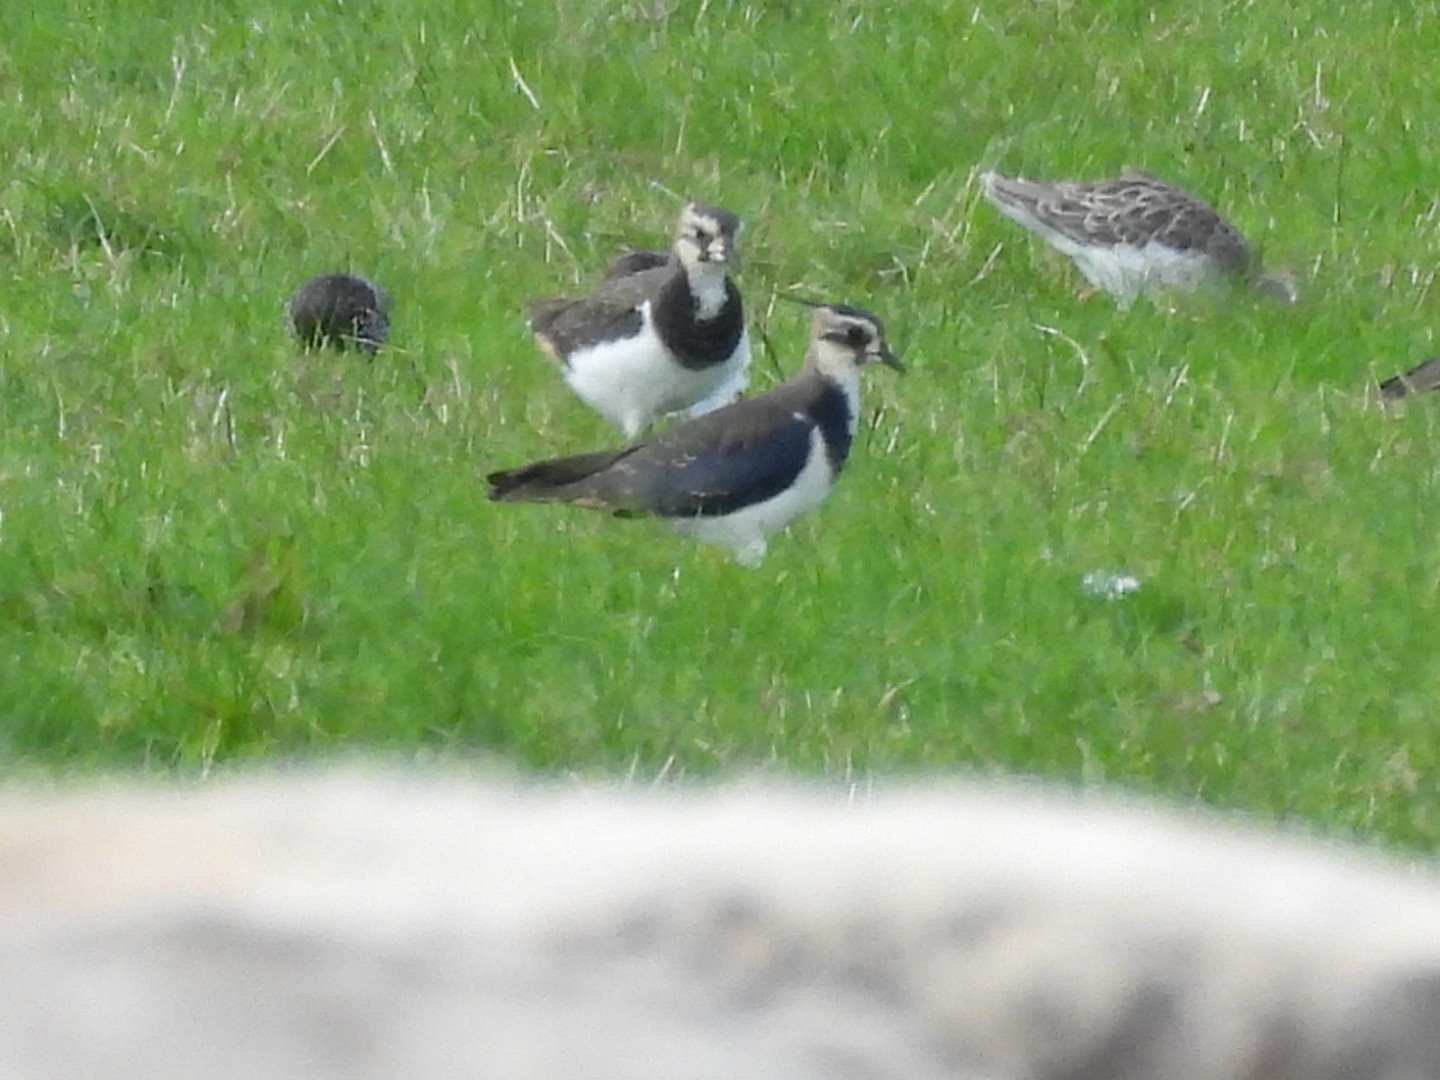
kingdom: Animalia
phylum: Chordata
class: Aves
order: Charadriiformes
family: Charadriidae
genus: Vanellus
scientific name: Vanellus vanellus
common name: Northern lapwing
